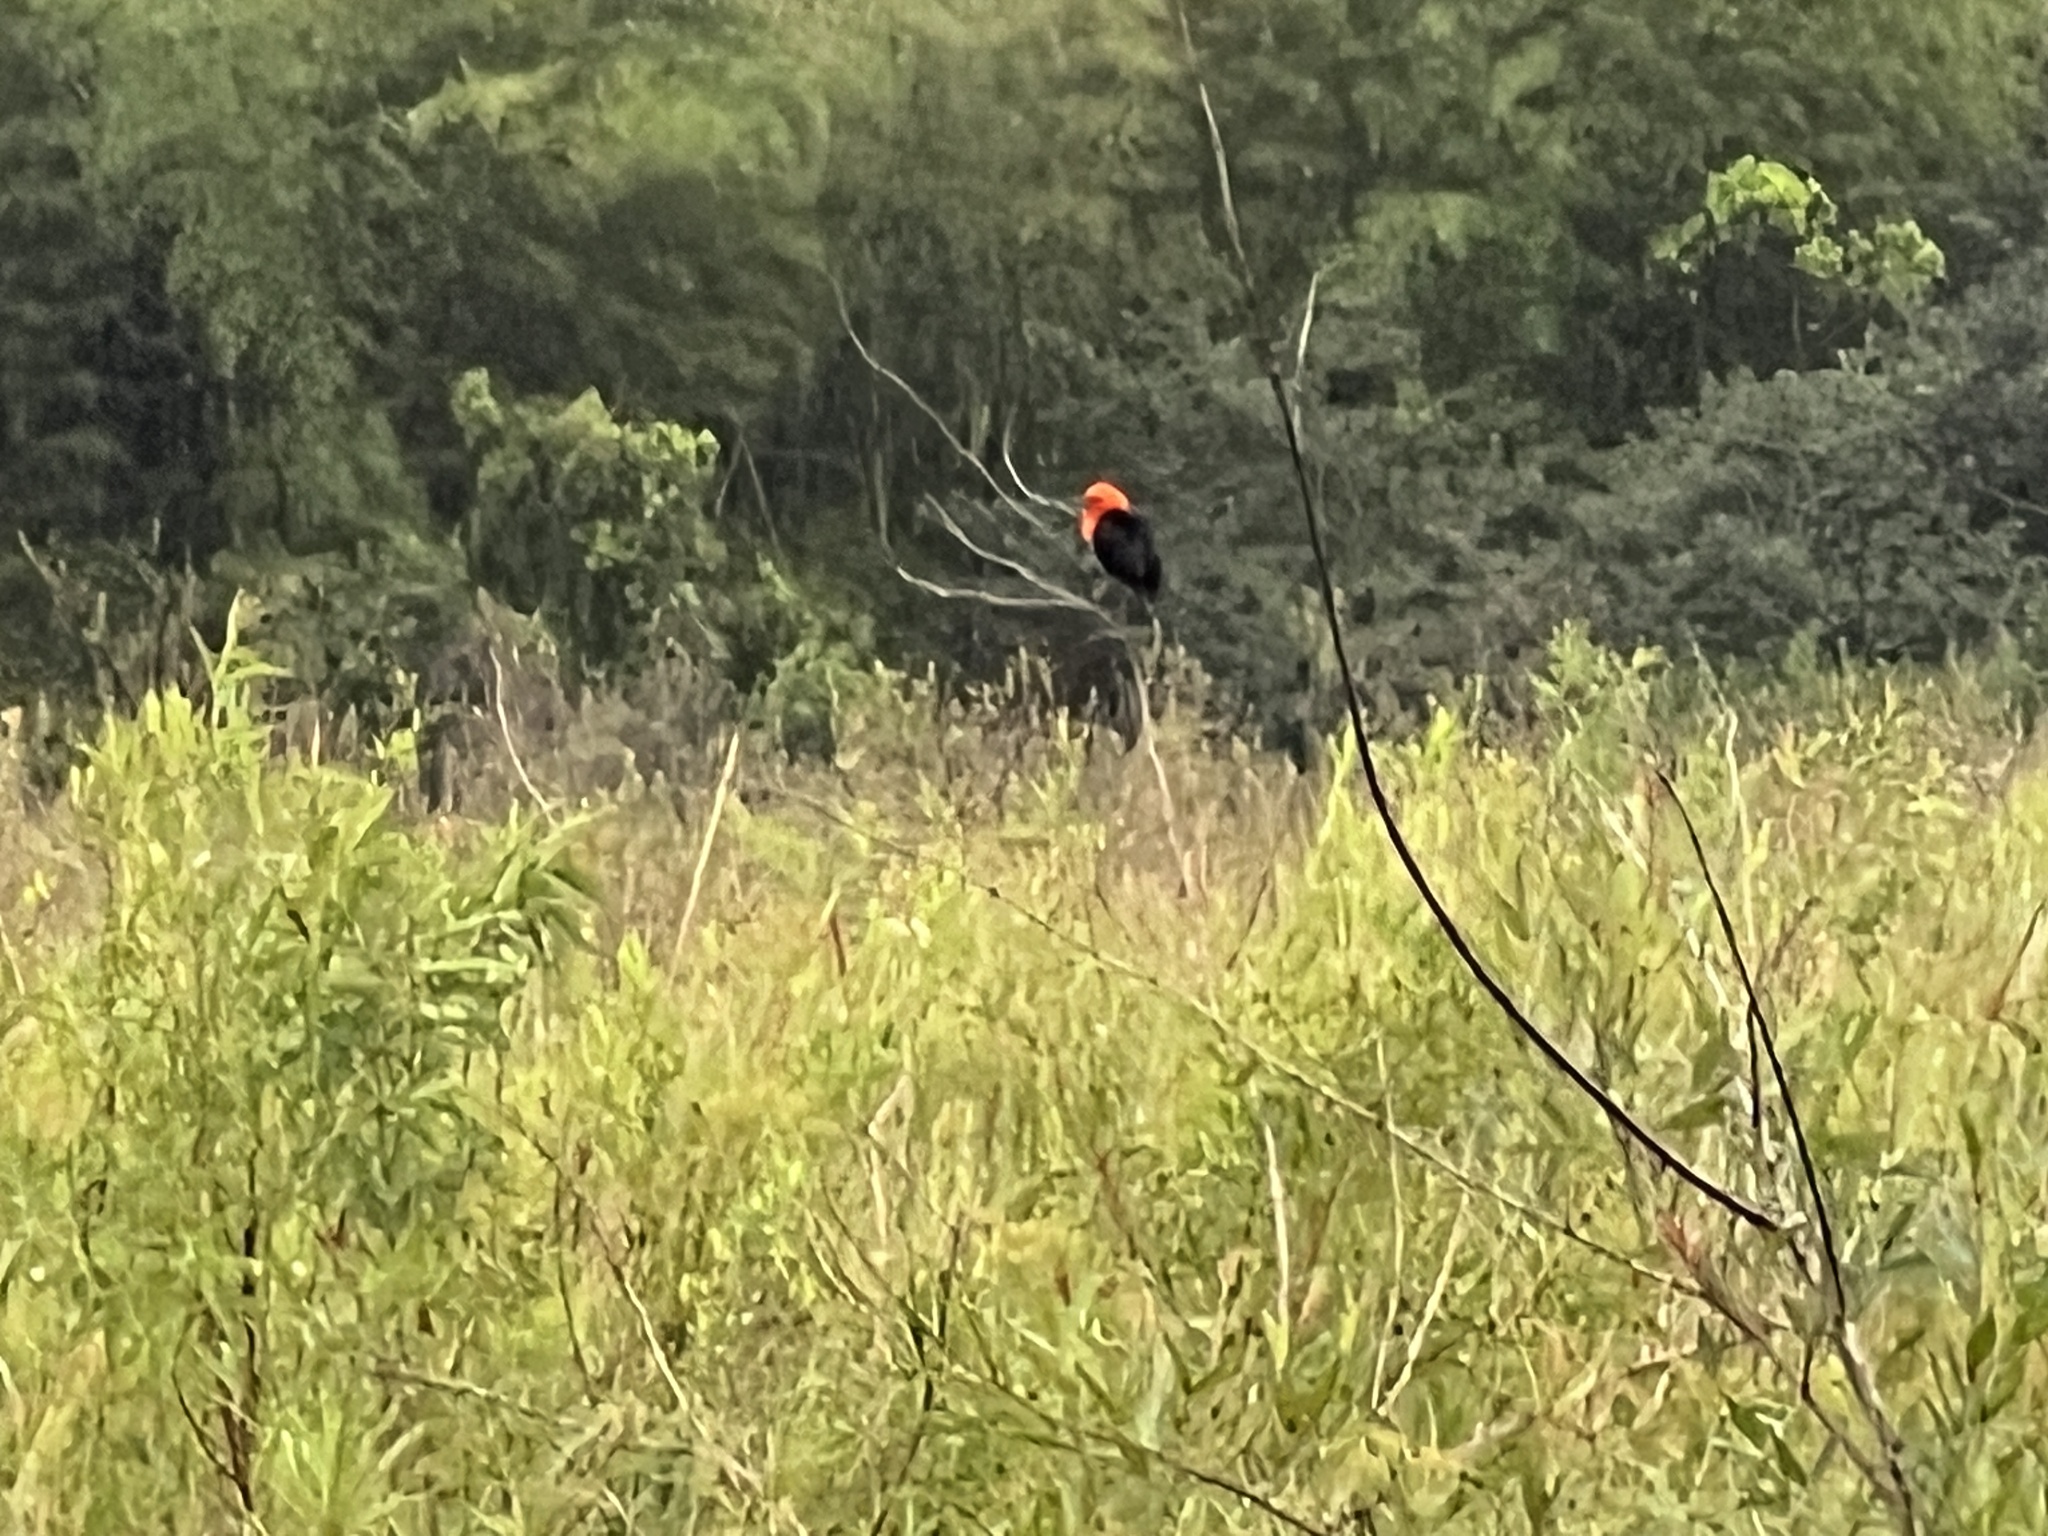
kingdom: Animalia
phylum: Chordata
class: Aves
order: Passeriformes
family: Icteridae
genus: Amblyramphus
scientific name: Amblyramphus holosericeus
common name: Scarlet-headed blackbird
